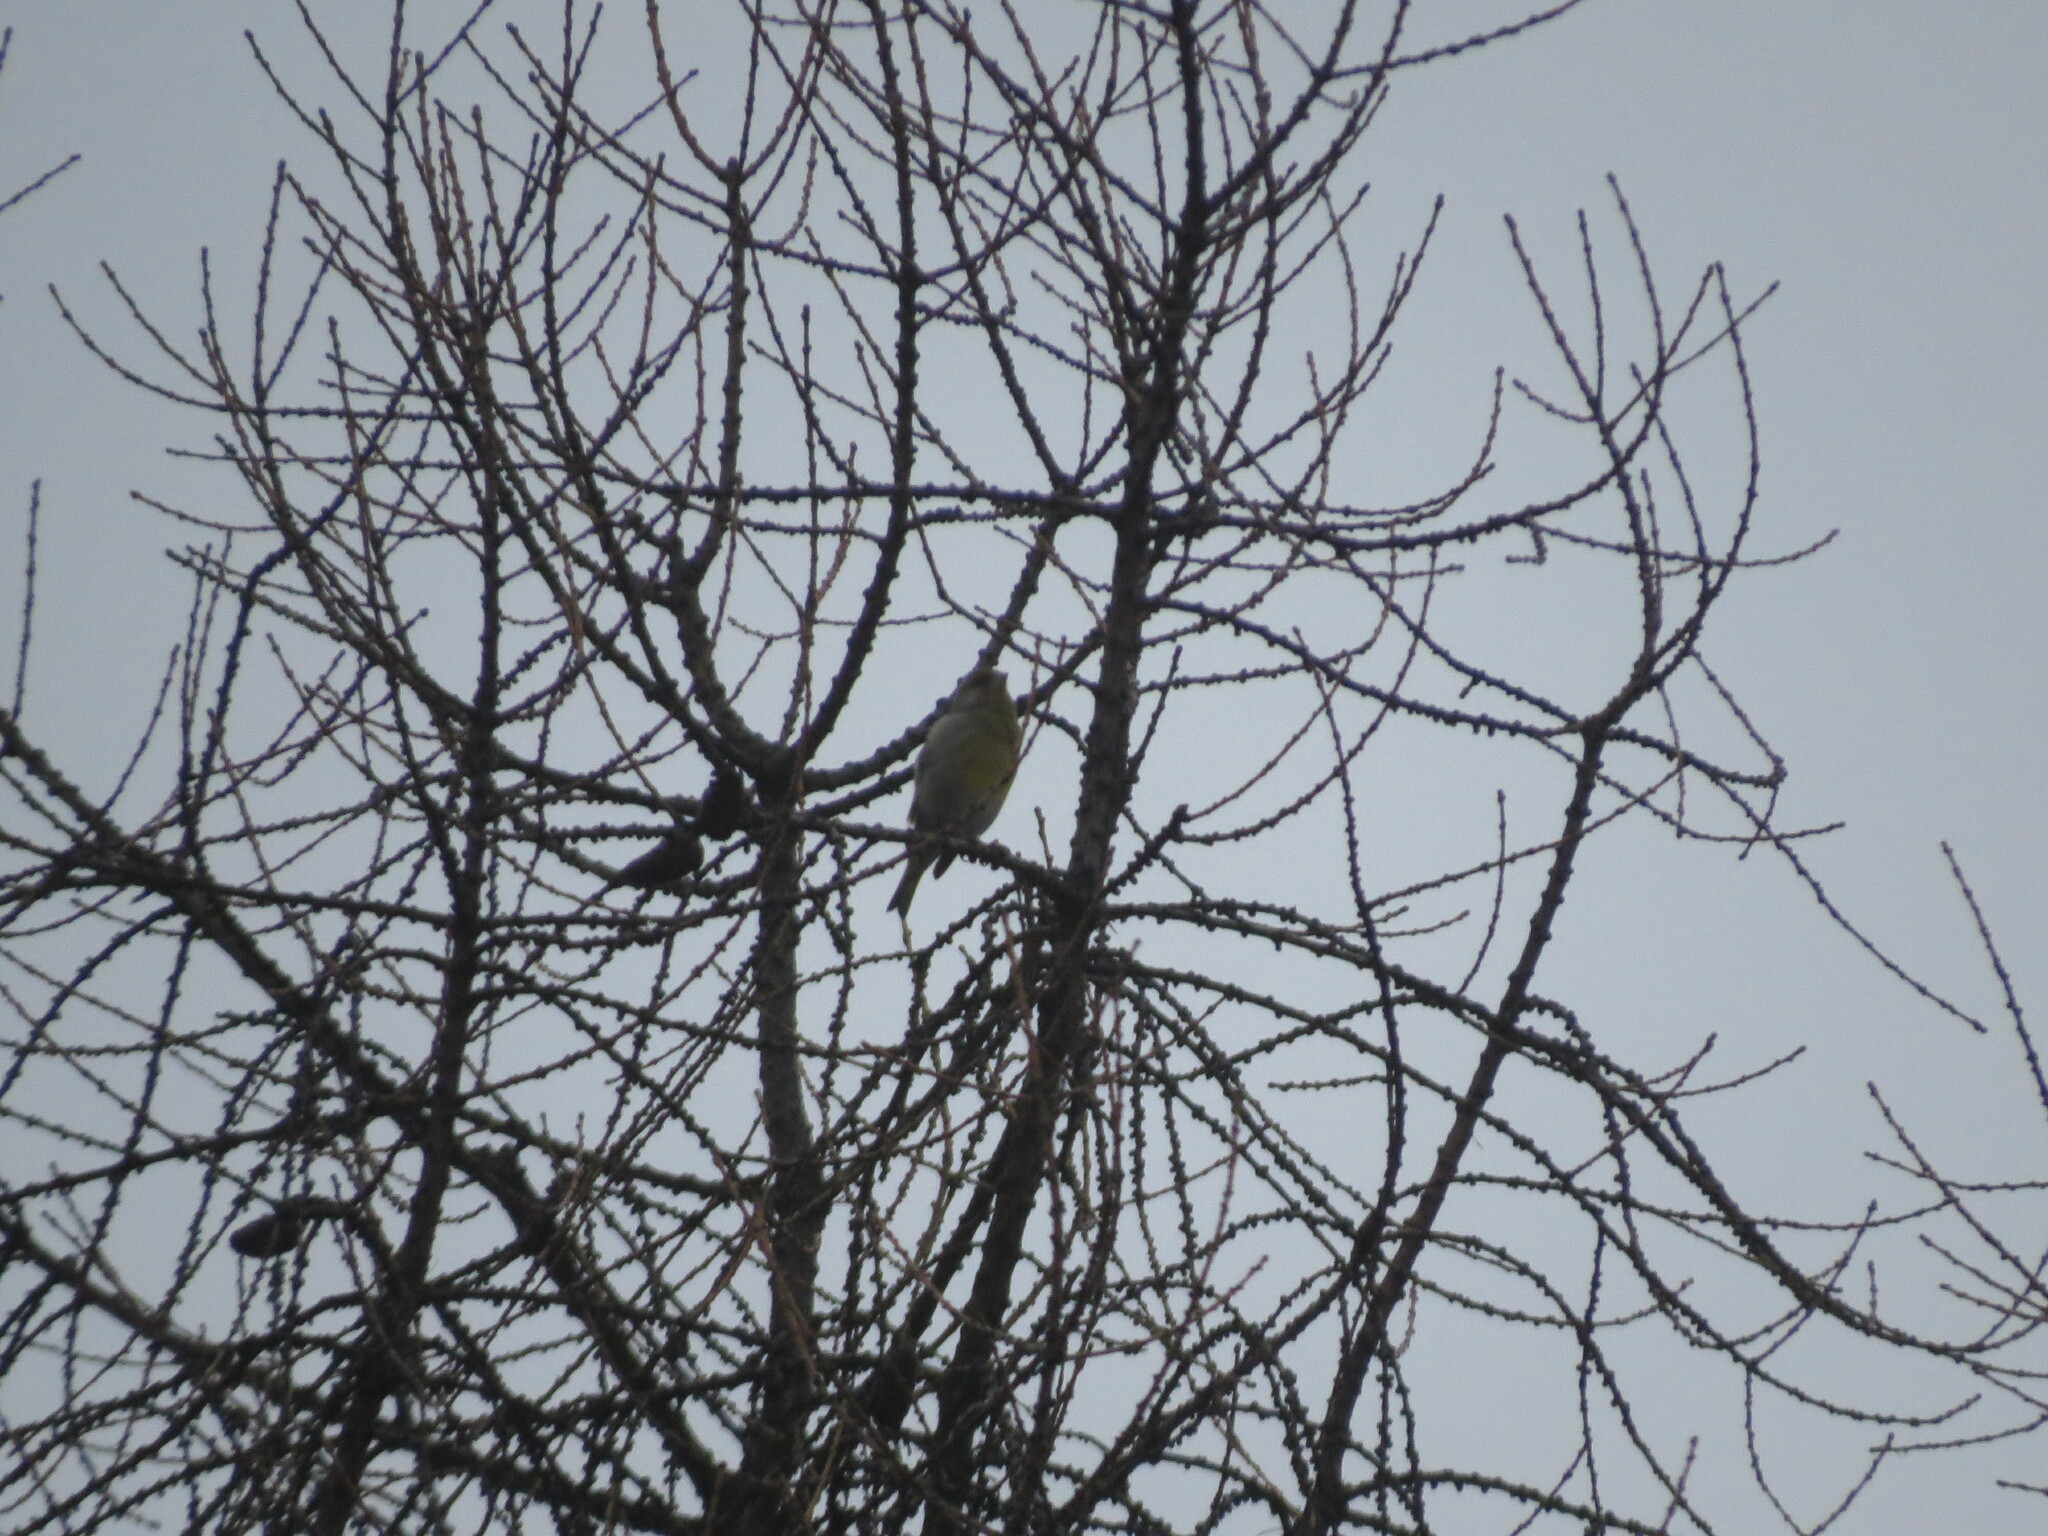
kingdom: Plantae
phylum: Tracheophyta
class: Liliopsida
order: Poales
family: Poaceae
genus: Chloris
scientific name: Chloris chloris
